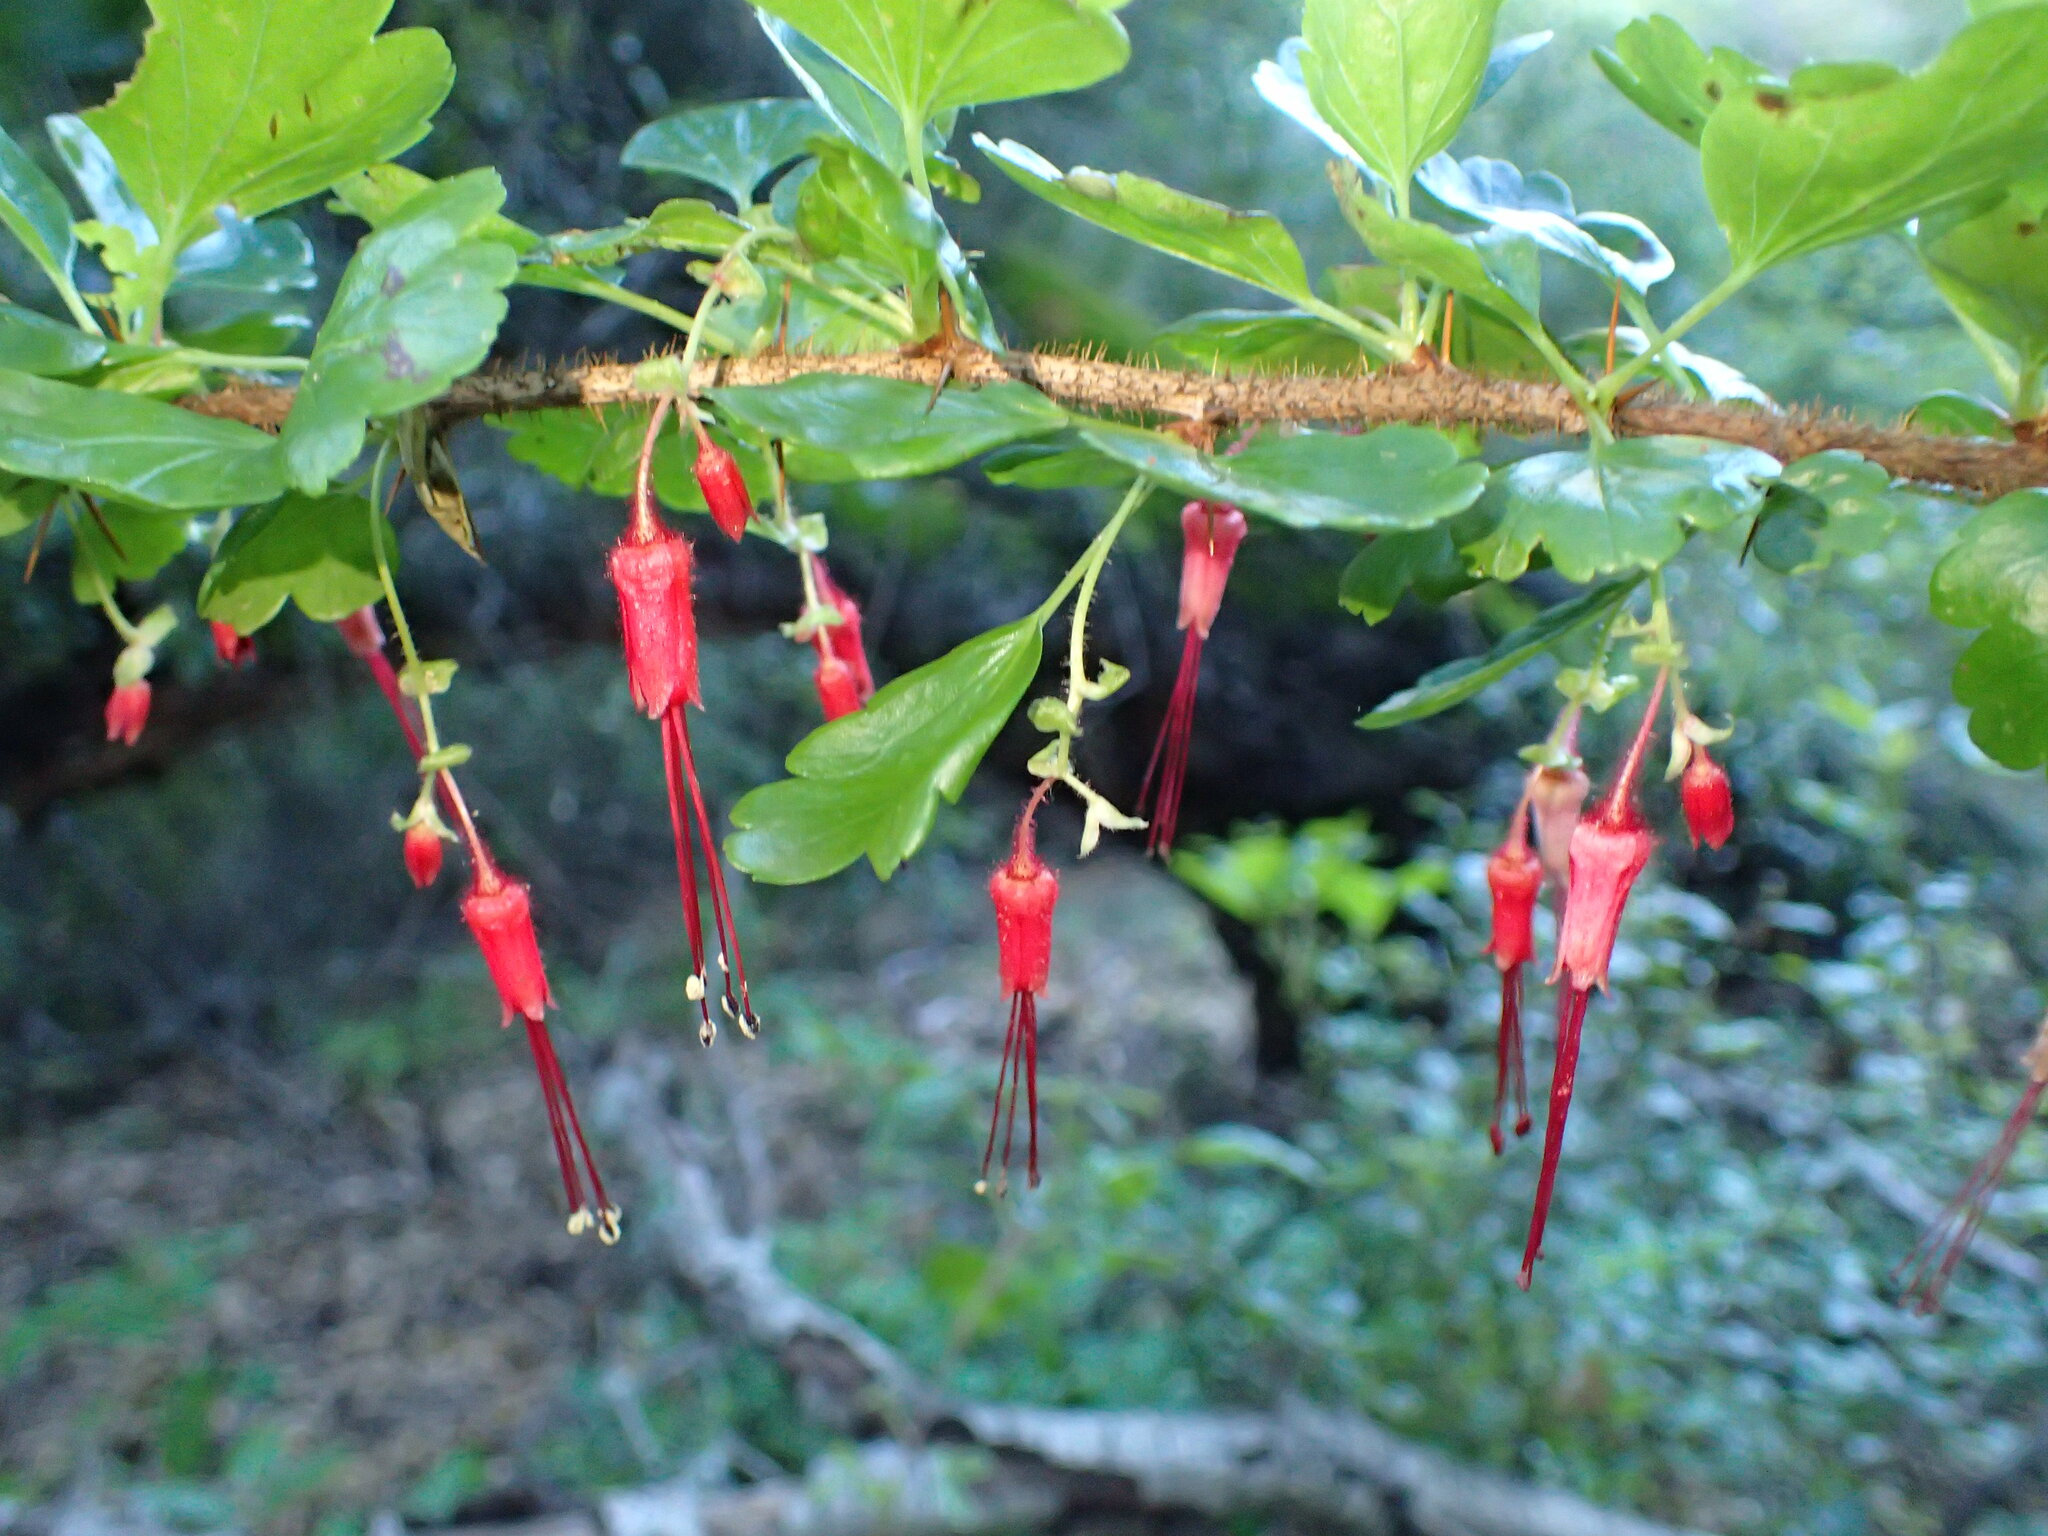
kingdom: Plantae
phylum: Tracheophyta
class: Magnoliopsida
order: Saxifragales
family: Grossulariaceae
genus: Ribes
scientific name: Ribes speciosum
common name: Fuchsia-flower gooseberry
